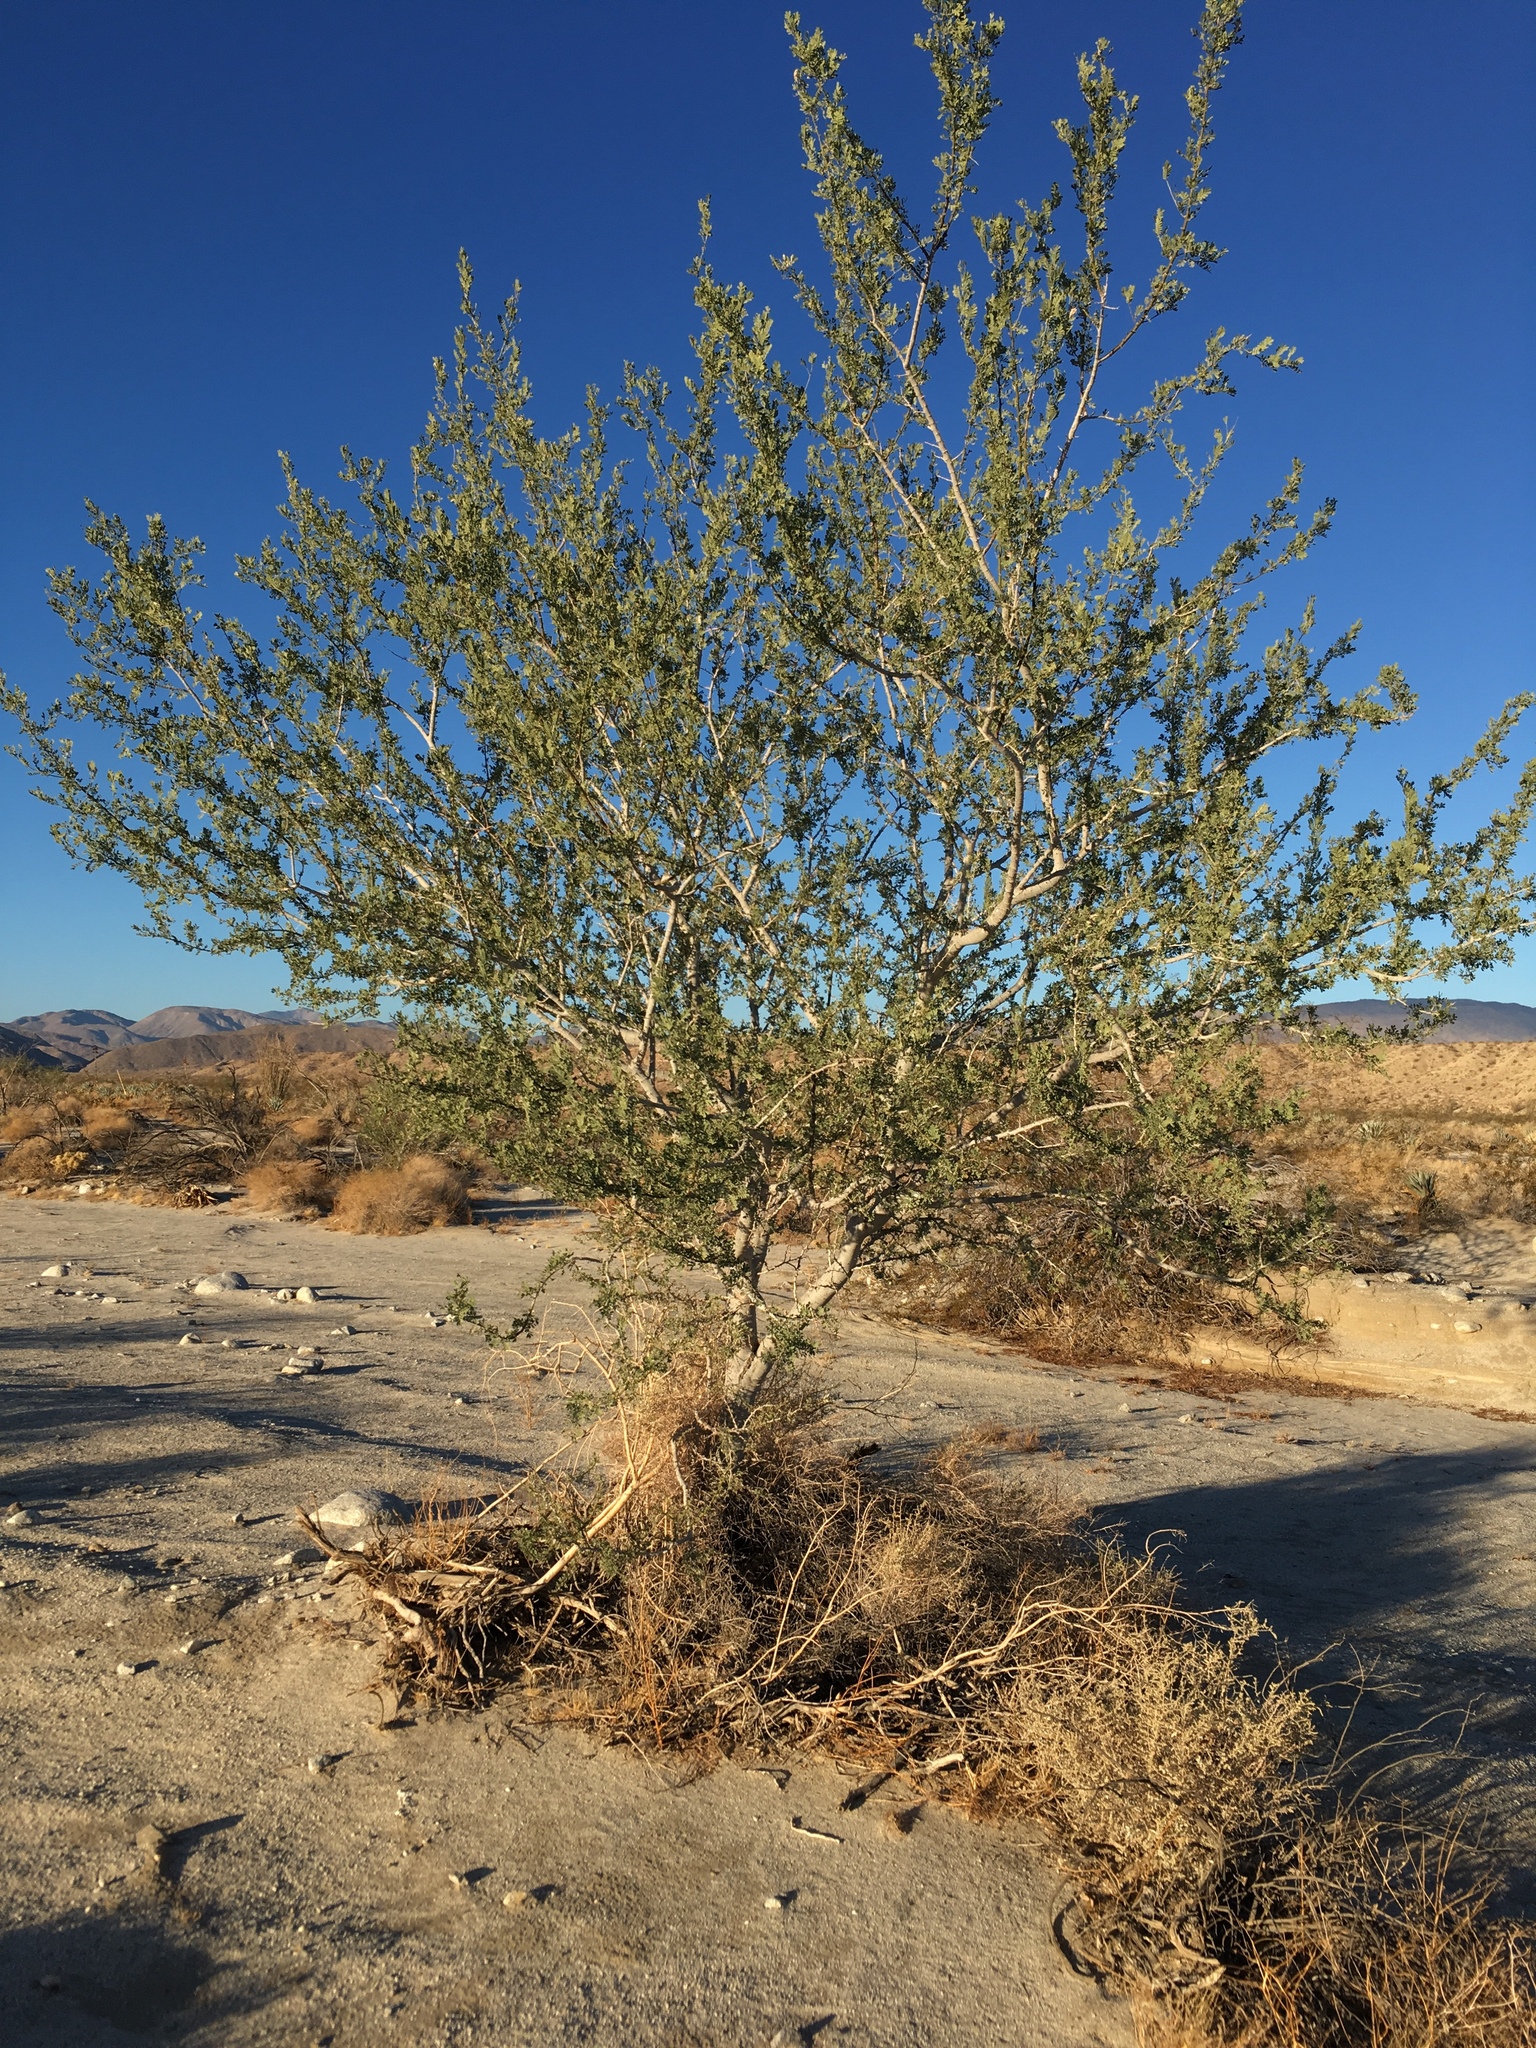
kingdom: Plantae
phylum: Tracheophyta
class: Magnoliopsida
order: Fabales
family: Fabaceae
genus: Olneya
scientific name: Olneya tesota
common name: Desert ironwood
